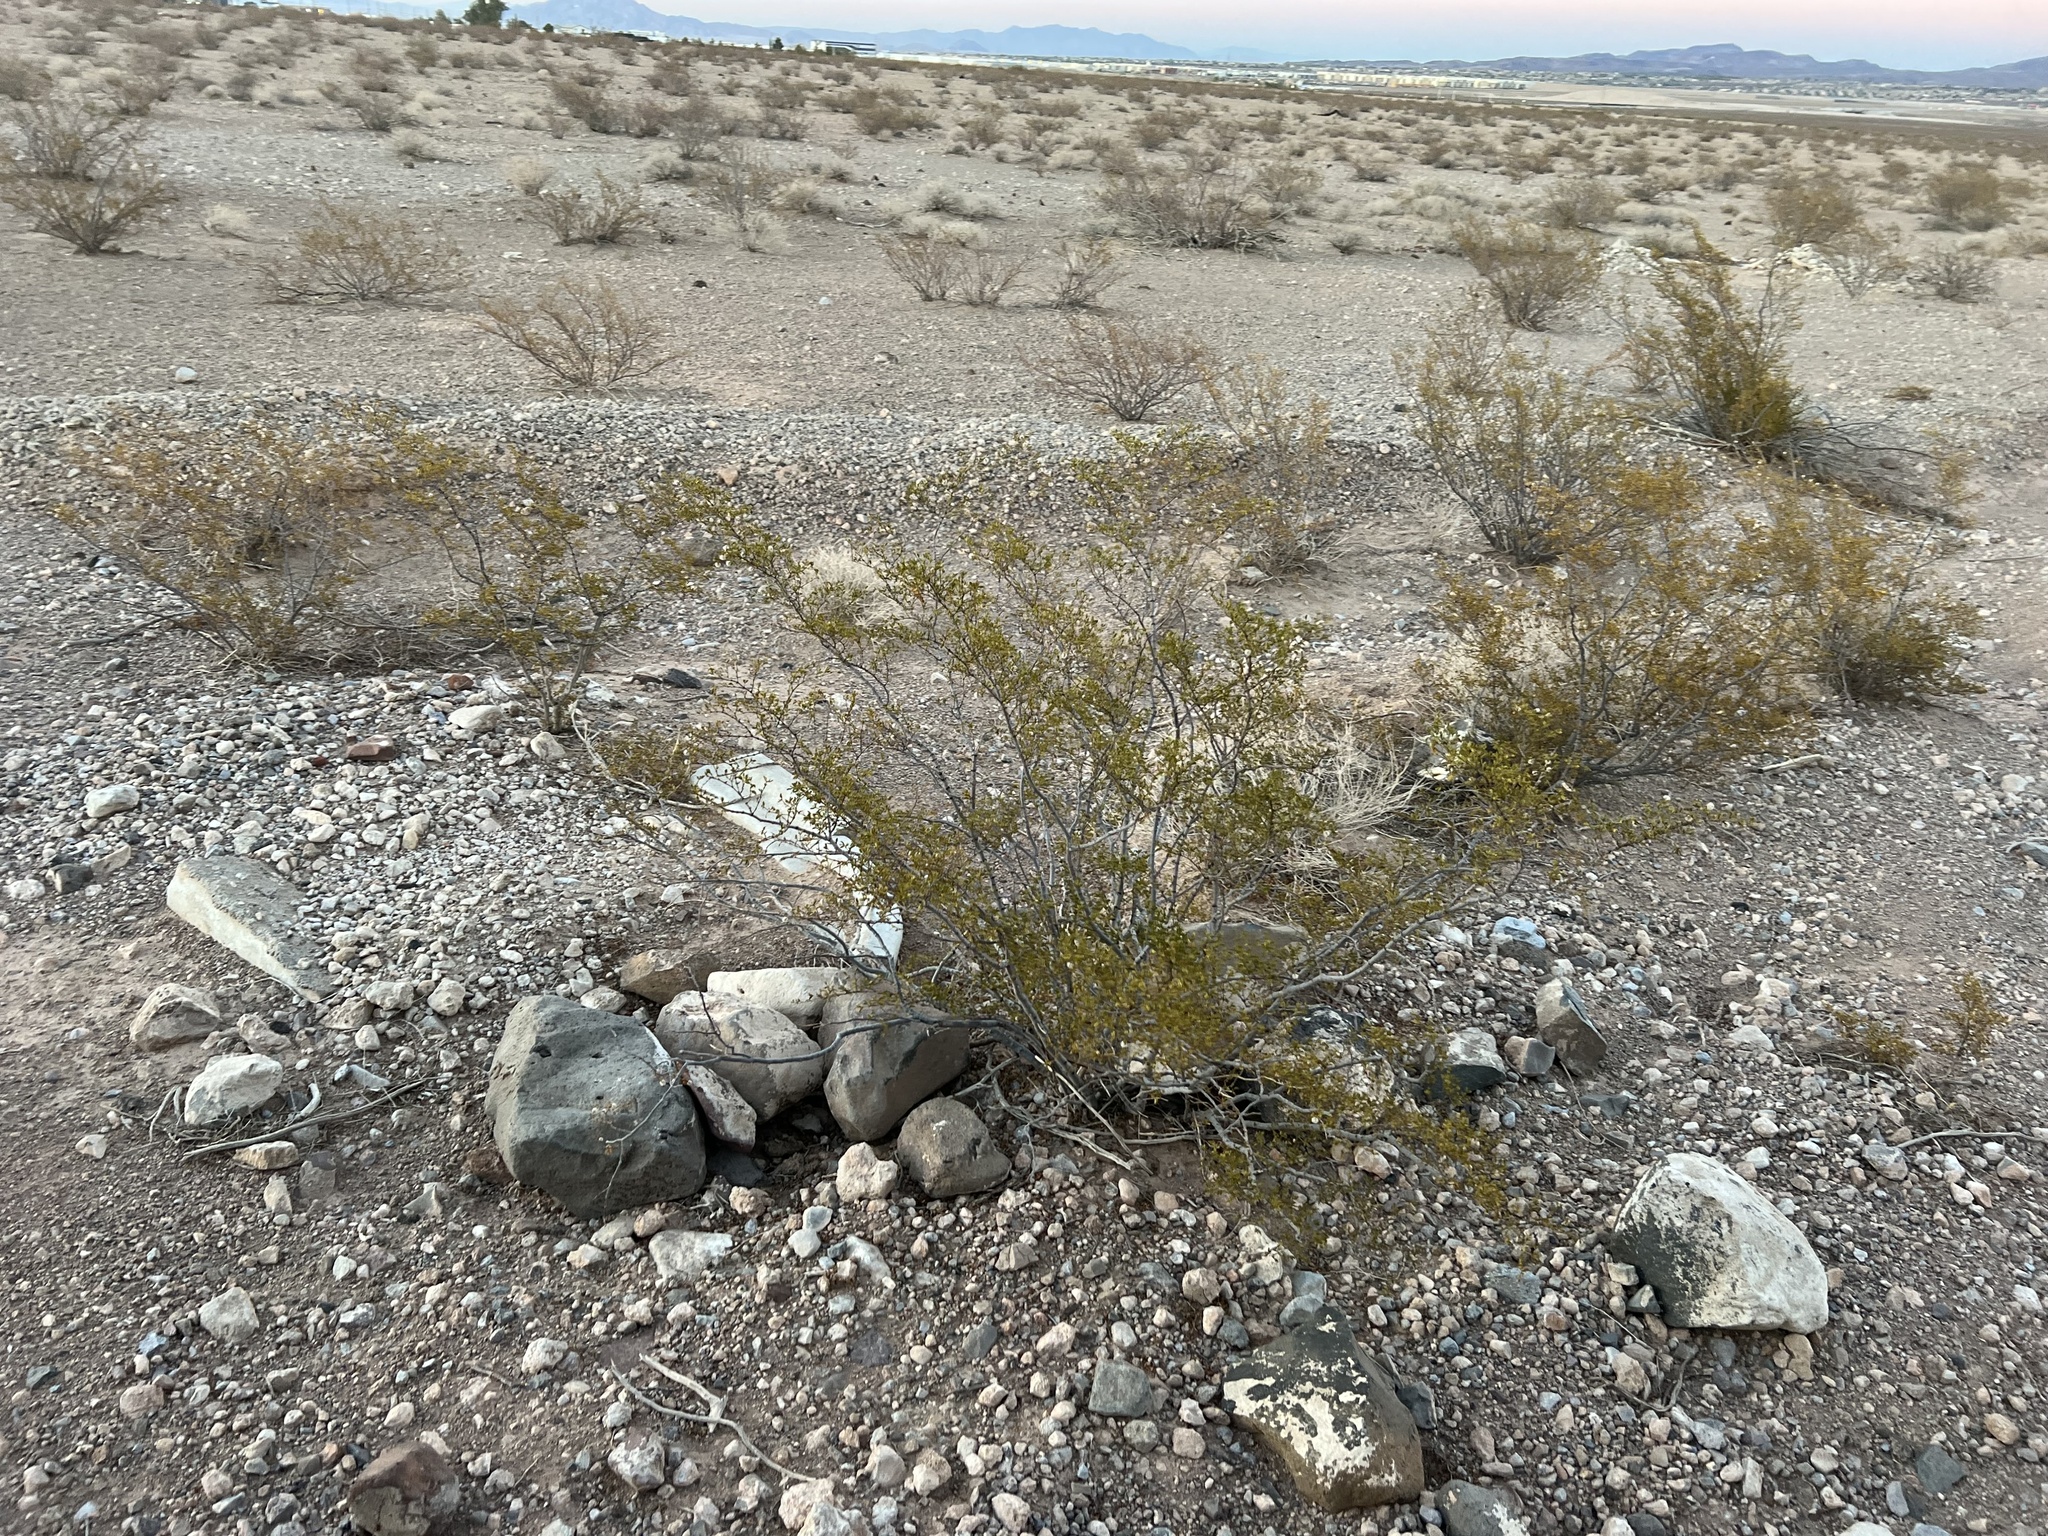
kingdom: Plantae
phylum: Tracheophyta
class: Magnoliopsida
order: Zygophyllales
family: Zygophyllaceae
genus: Larrea
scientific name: Larrea tridentata
